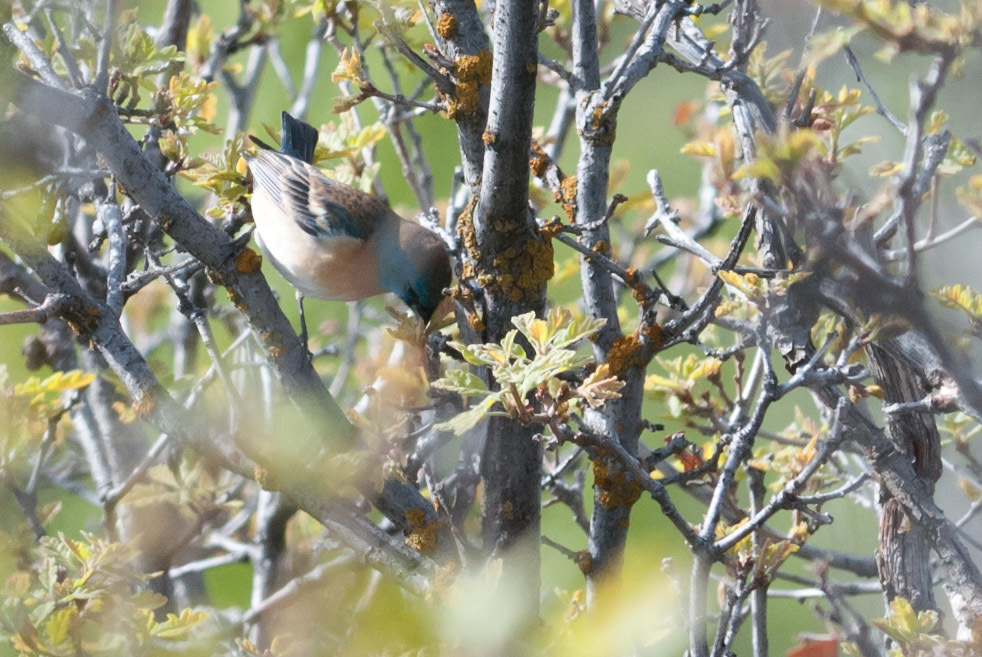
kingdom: Animalia
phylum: Chordata
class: Aves
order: Passeriformes
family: Cardinalidae
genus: Passerina
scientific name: Passerina amoena
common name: Lazuli bunting
